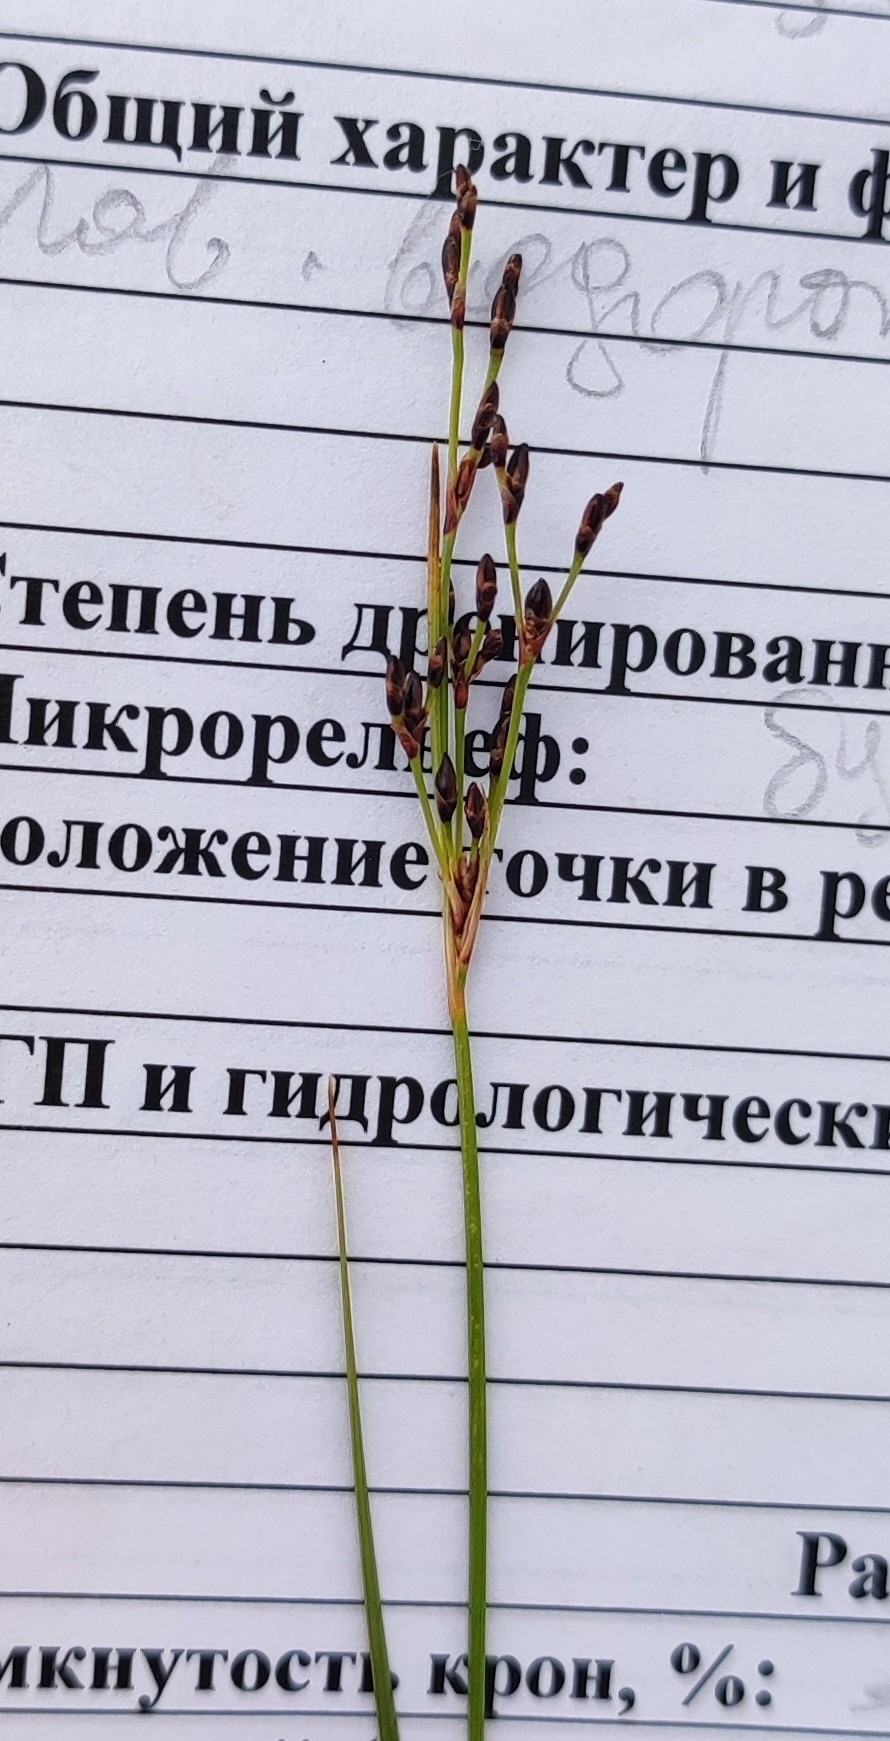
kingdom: Plantae
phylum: Tracheophyta
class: Liliopsida
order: Poales
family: Juncaceae
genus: Juncus
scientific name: Juncus gerardi
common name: Saltmarsh rush
